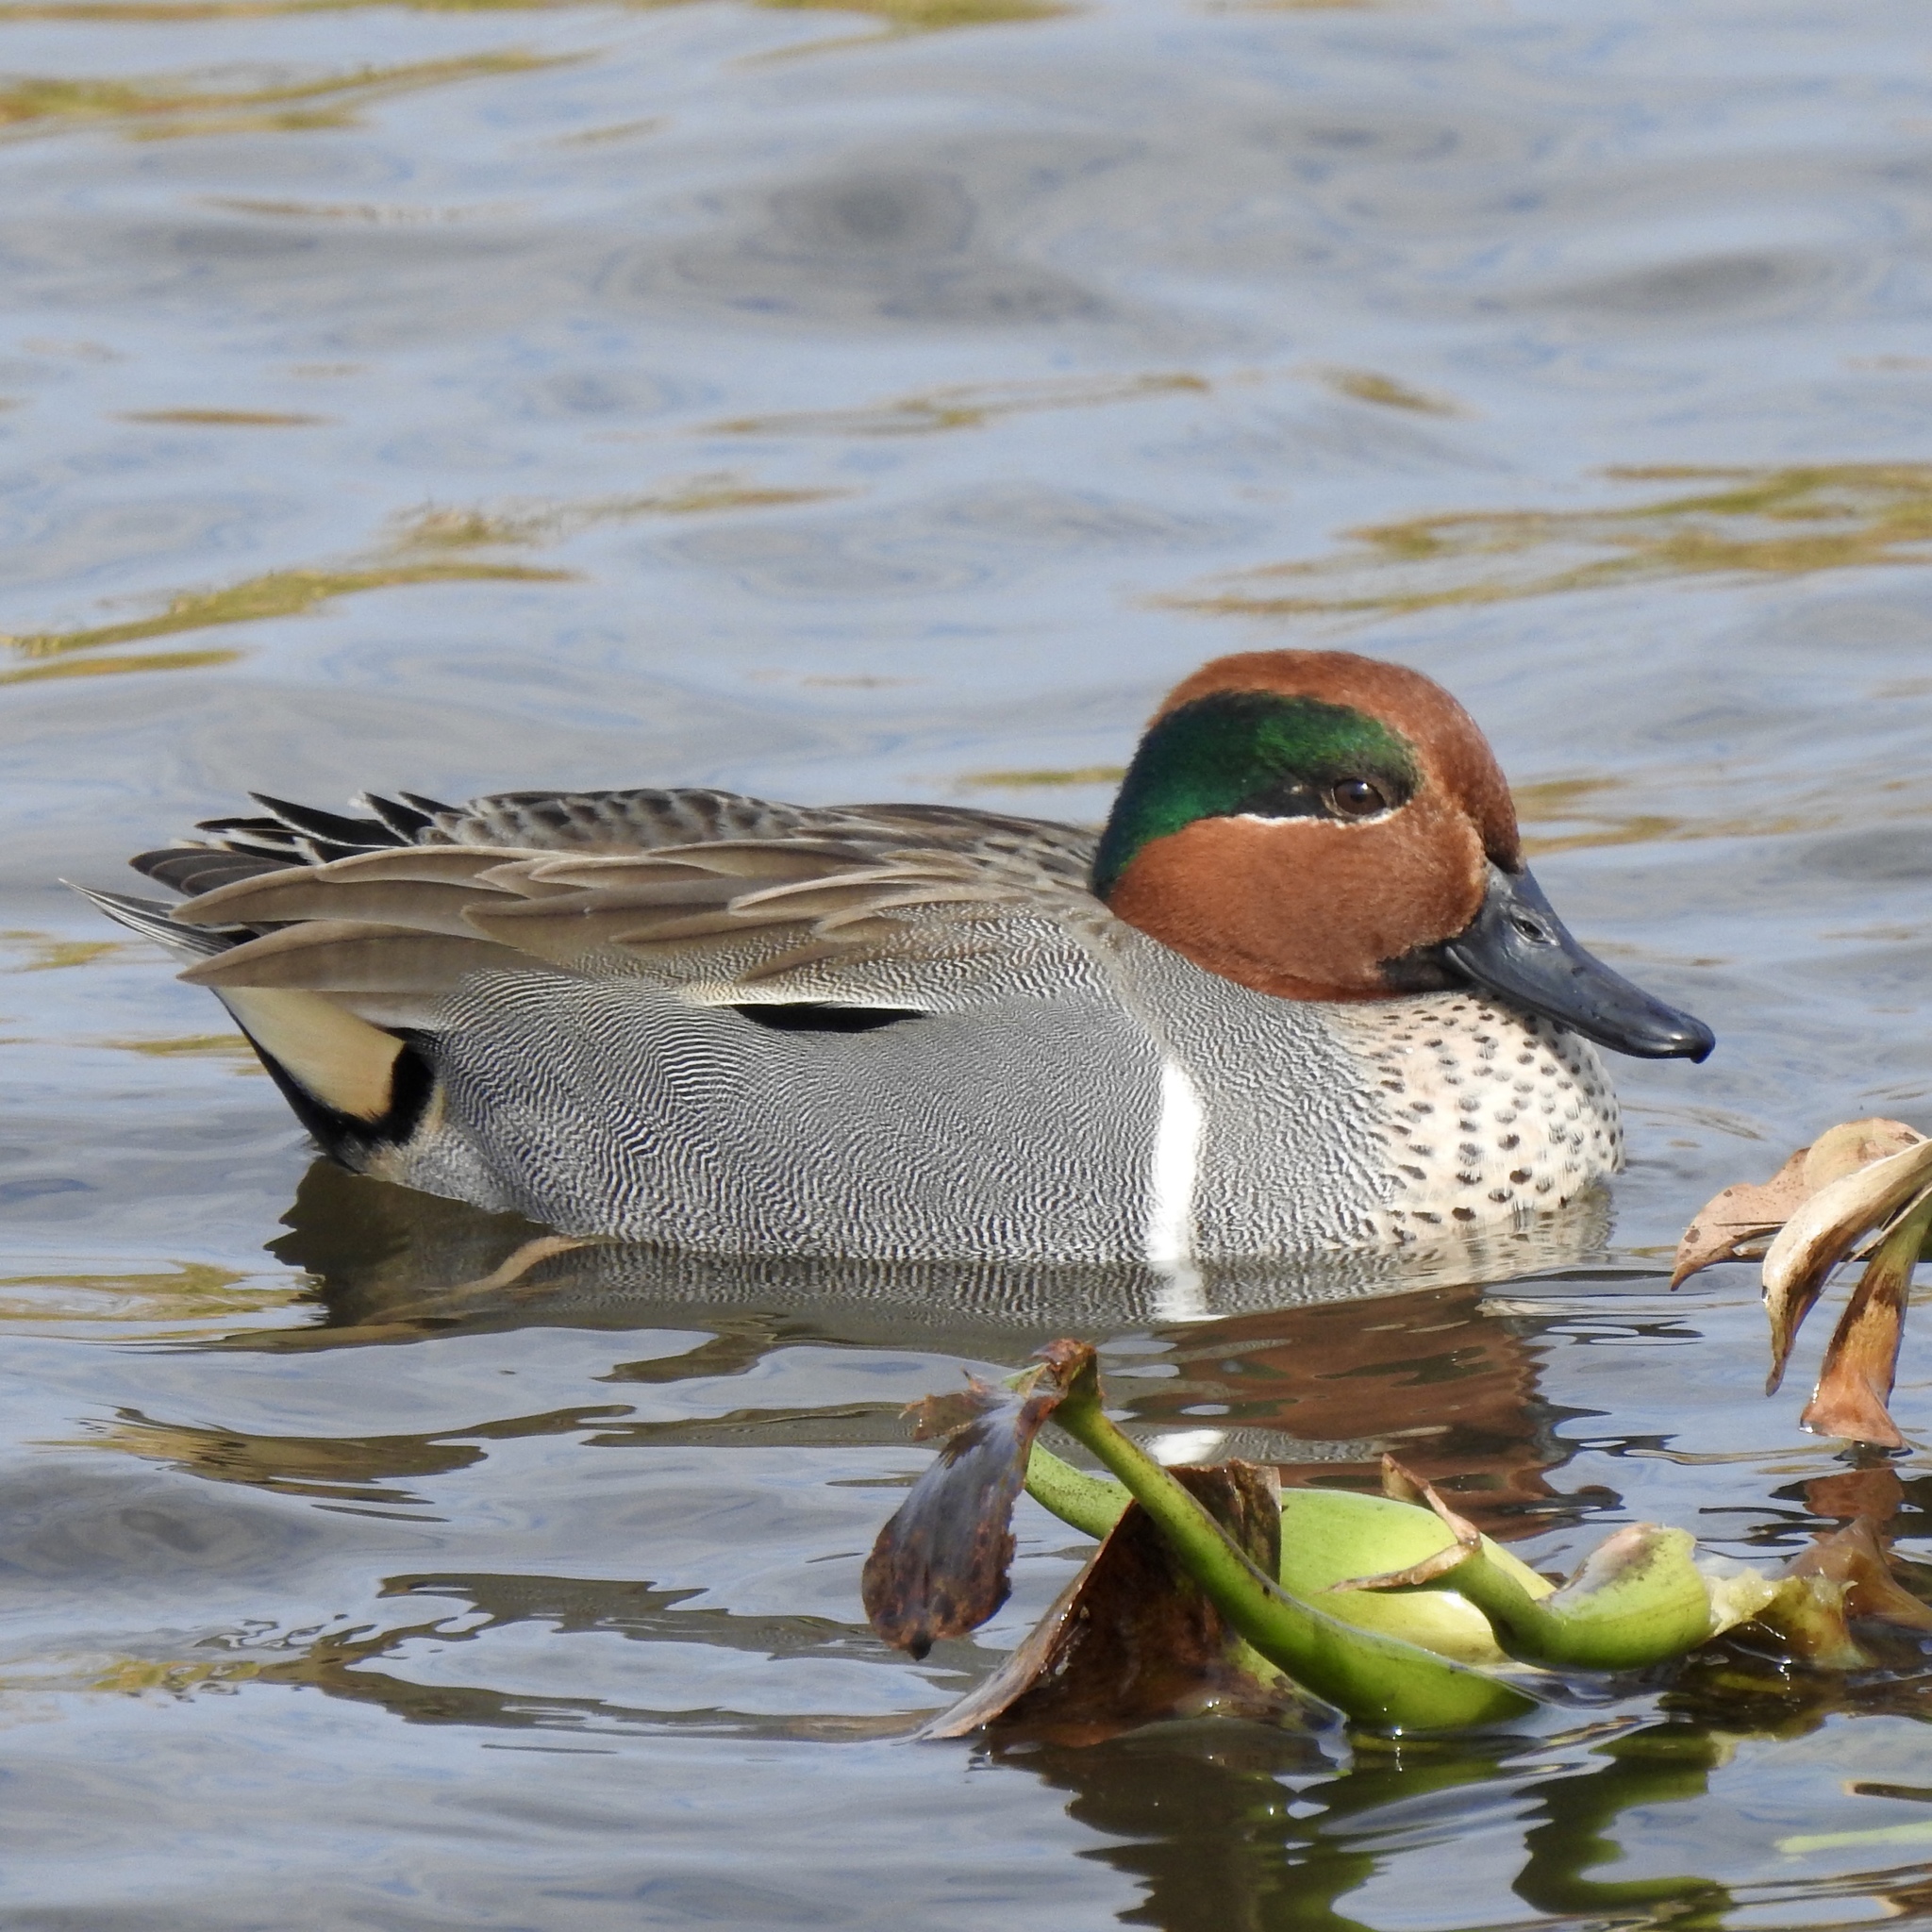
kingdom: Animalia
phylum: Chordata
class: Aves
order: Anseriformes
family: Anatidae
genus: Anas
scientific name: Anas crecca
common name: Eurasian teal
